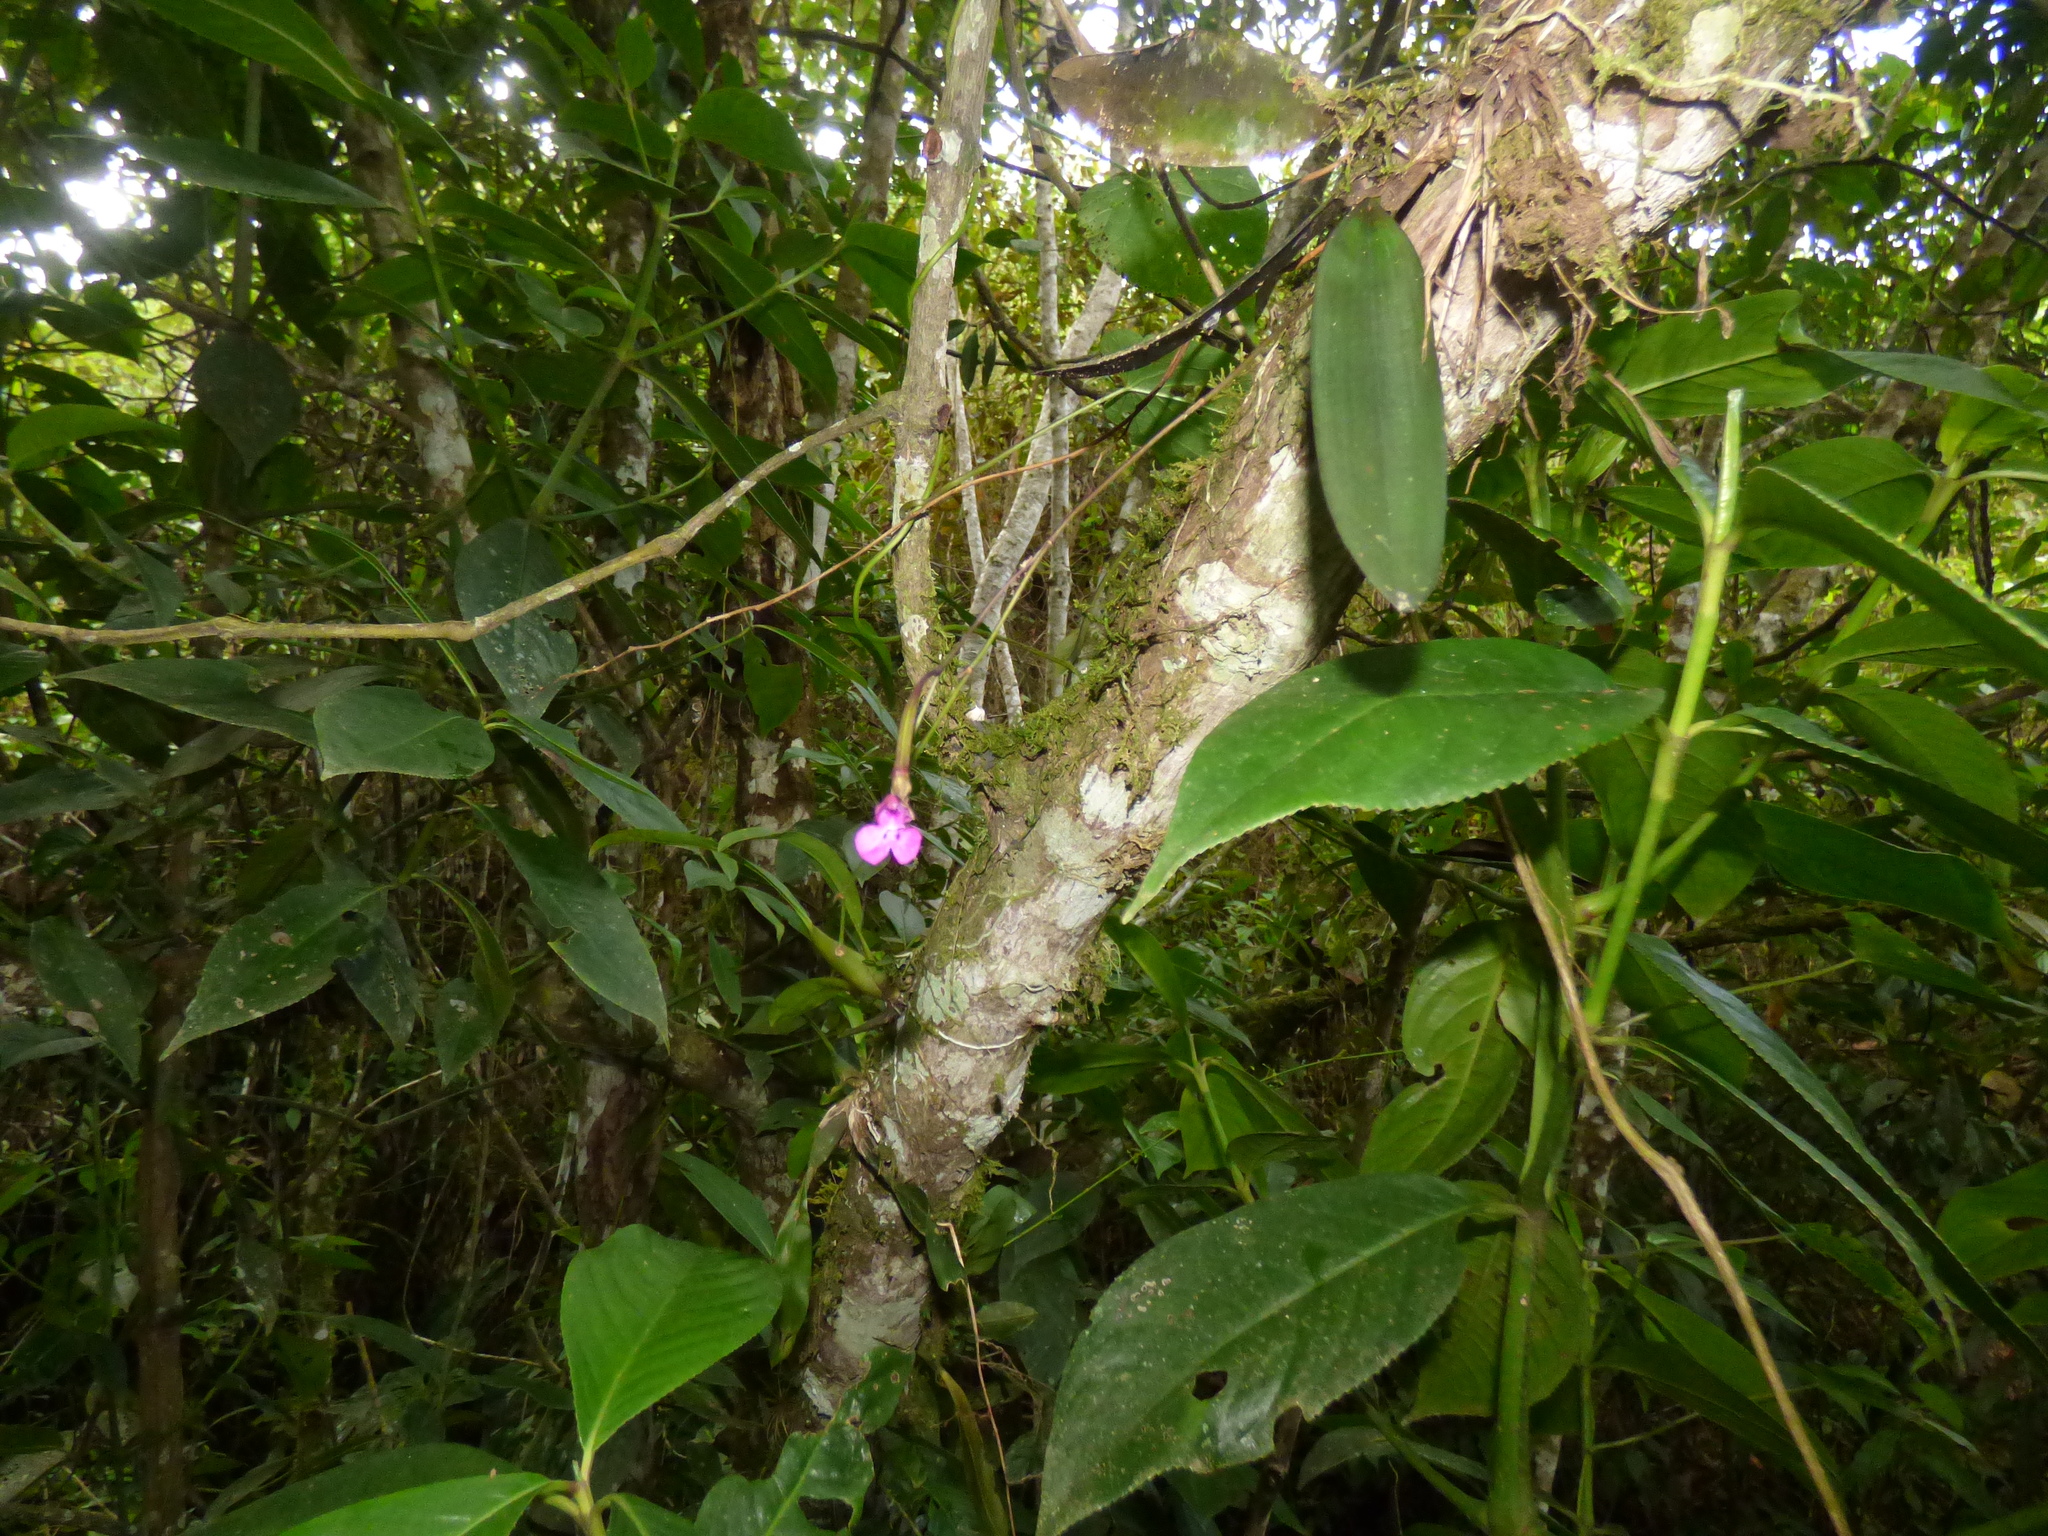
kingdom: Plantae
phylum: Tracheophyta
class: Liliopsida
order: Asparagales
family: Orchidaceae
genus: Comparettia
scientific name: Comparettia falcata
